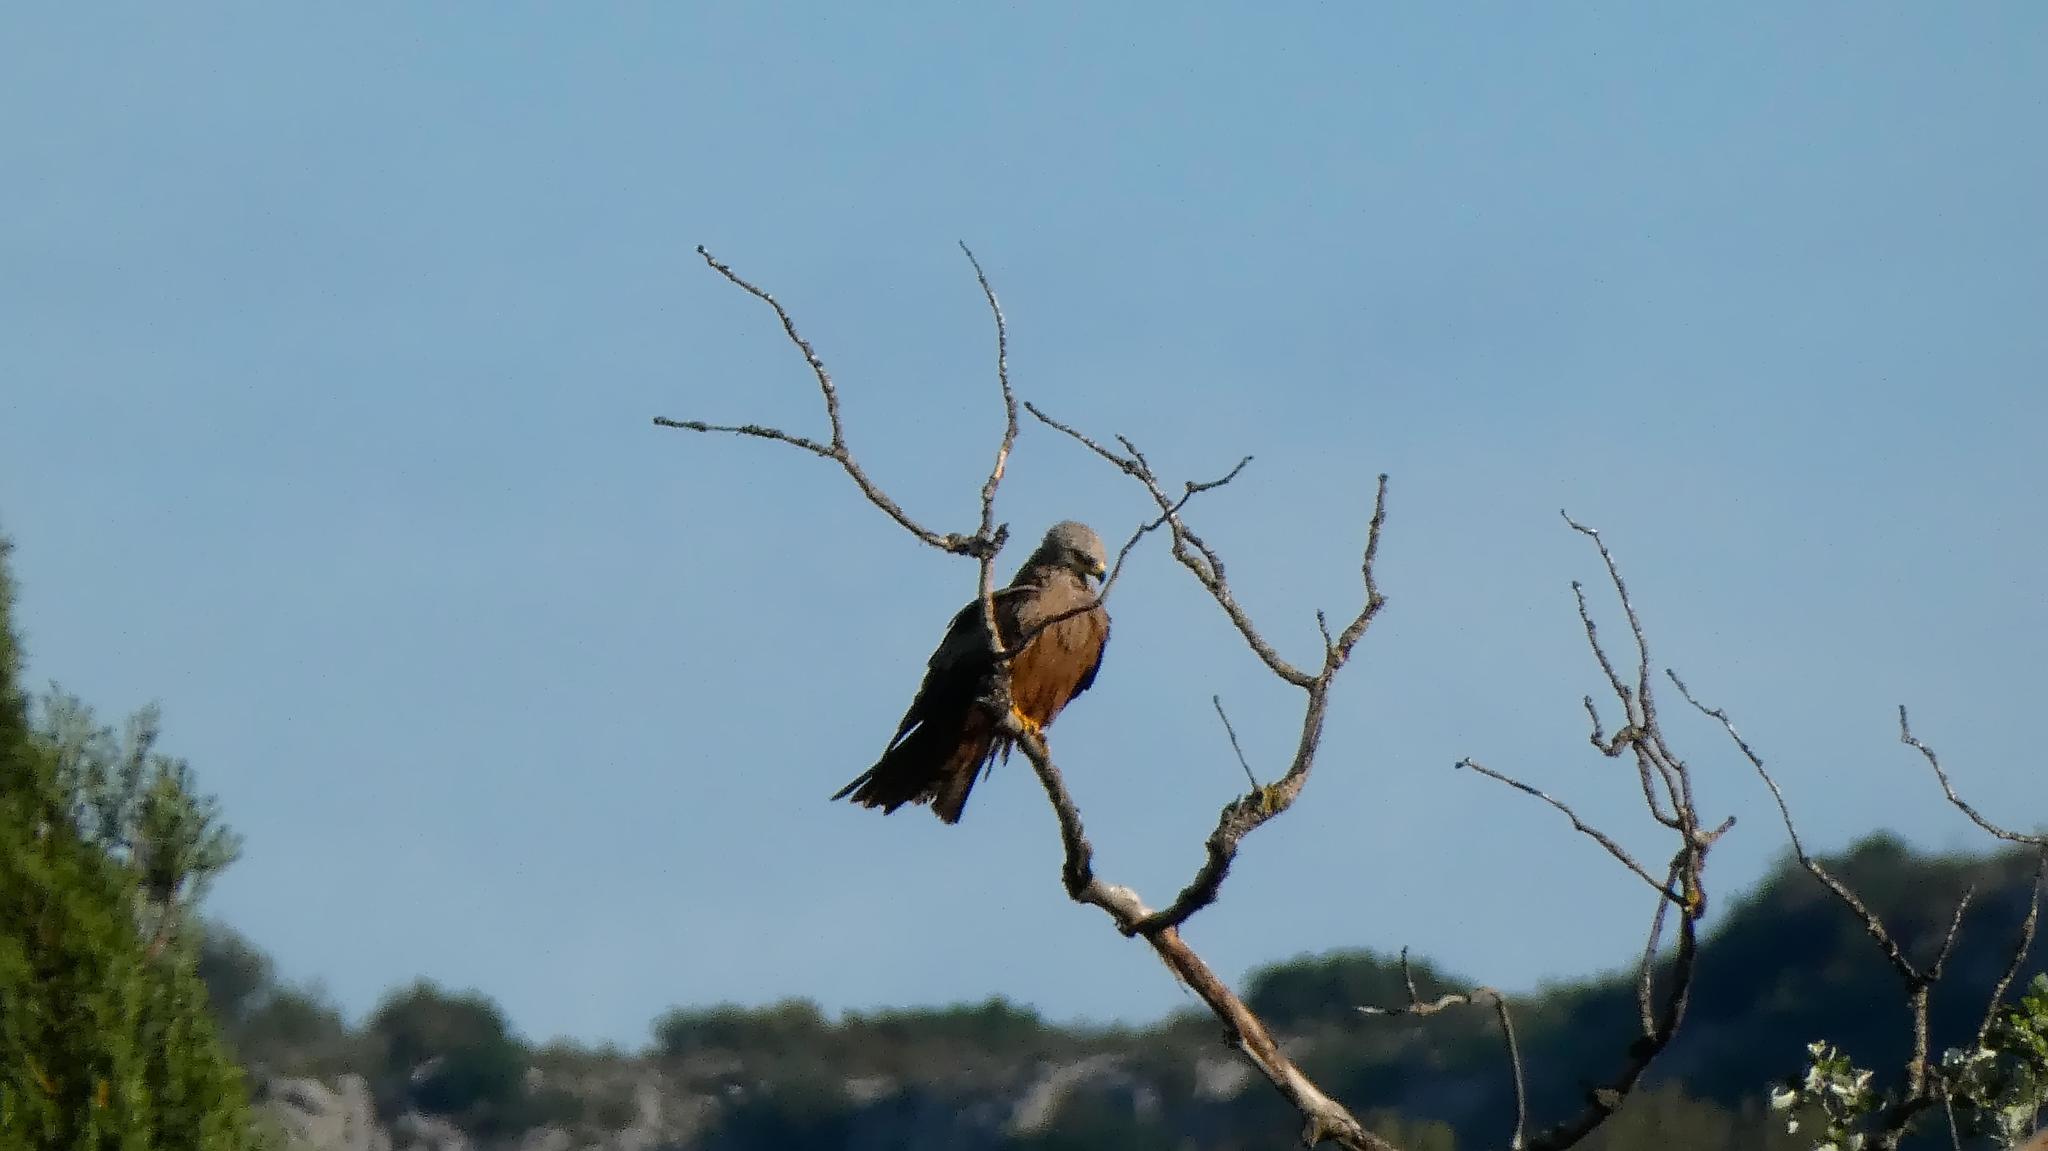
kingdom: Animalia
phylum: Chordata
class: Aves
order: Accipitriformes
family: Accipitridae
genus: Milvus
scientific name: Milvus migrans
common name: Black kite
